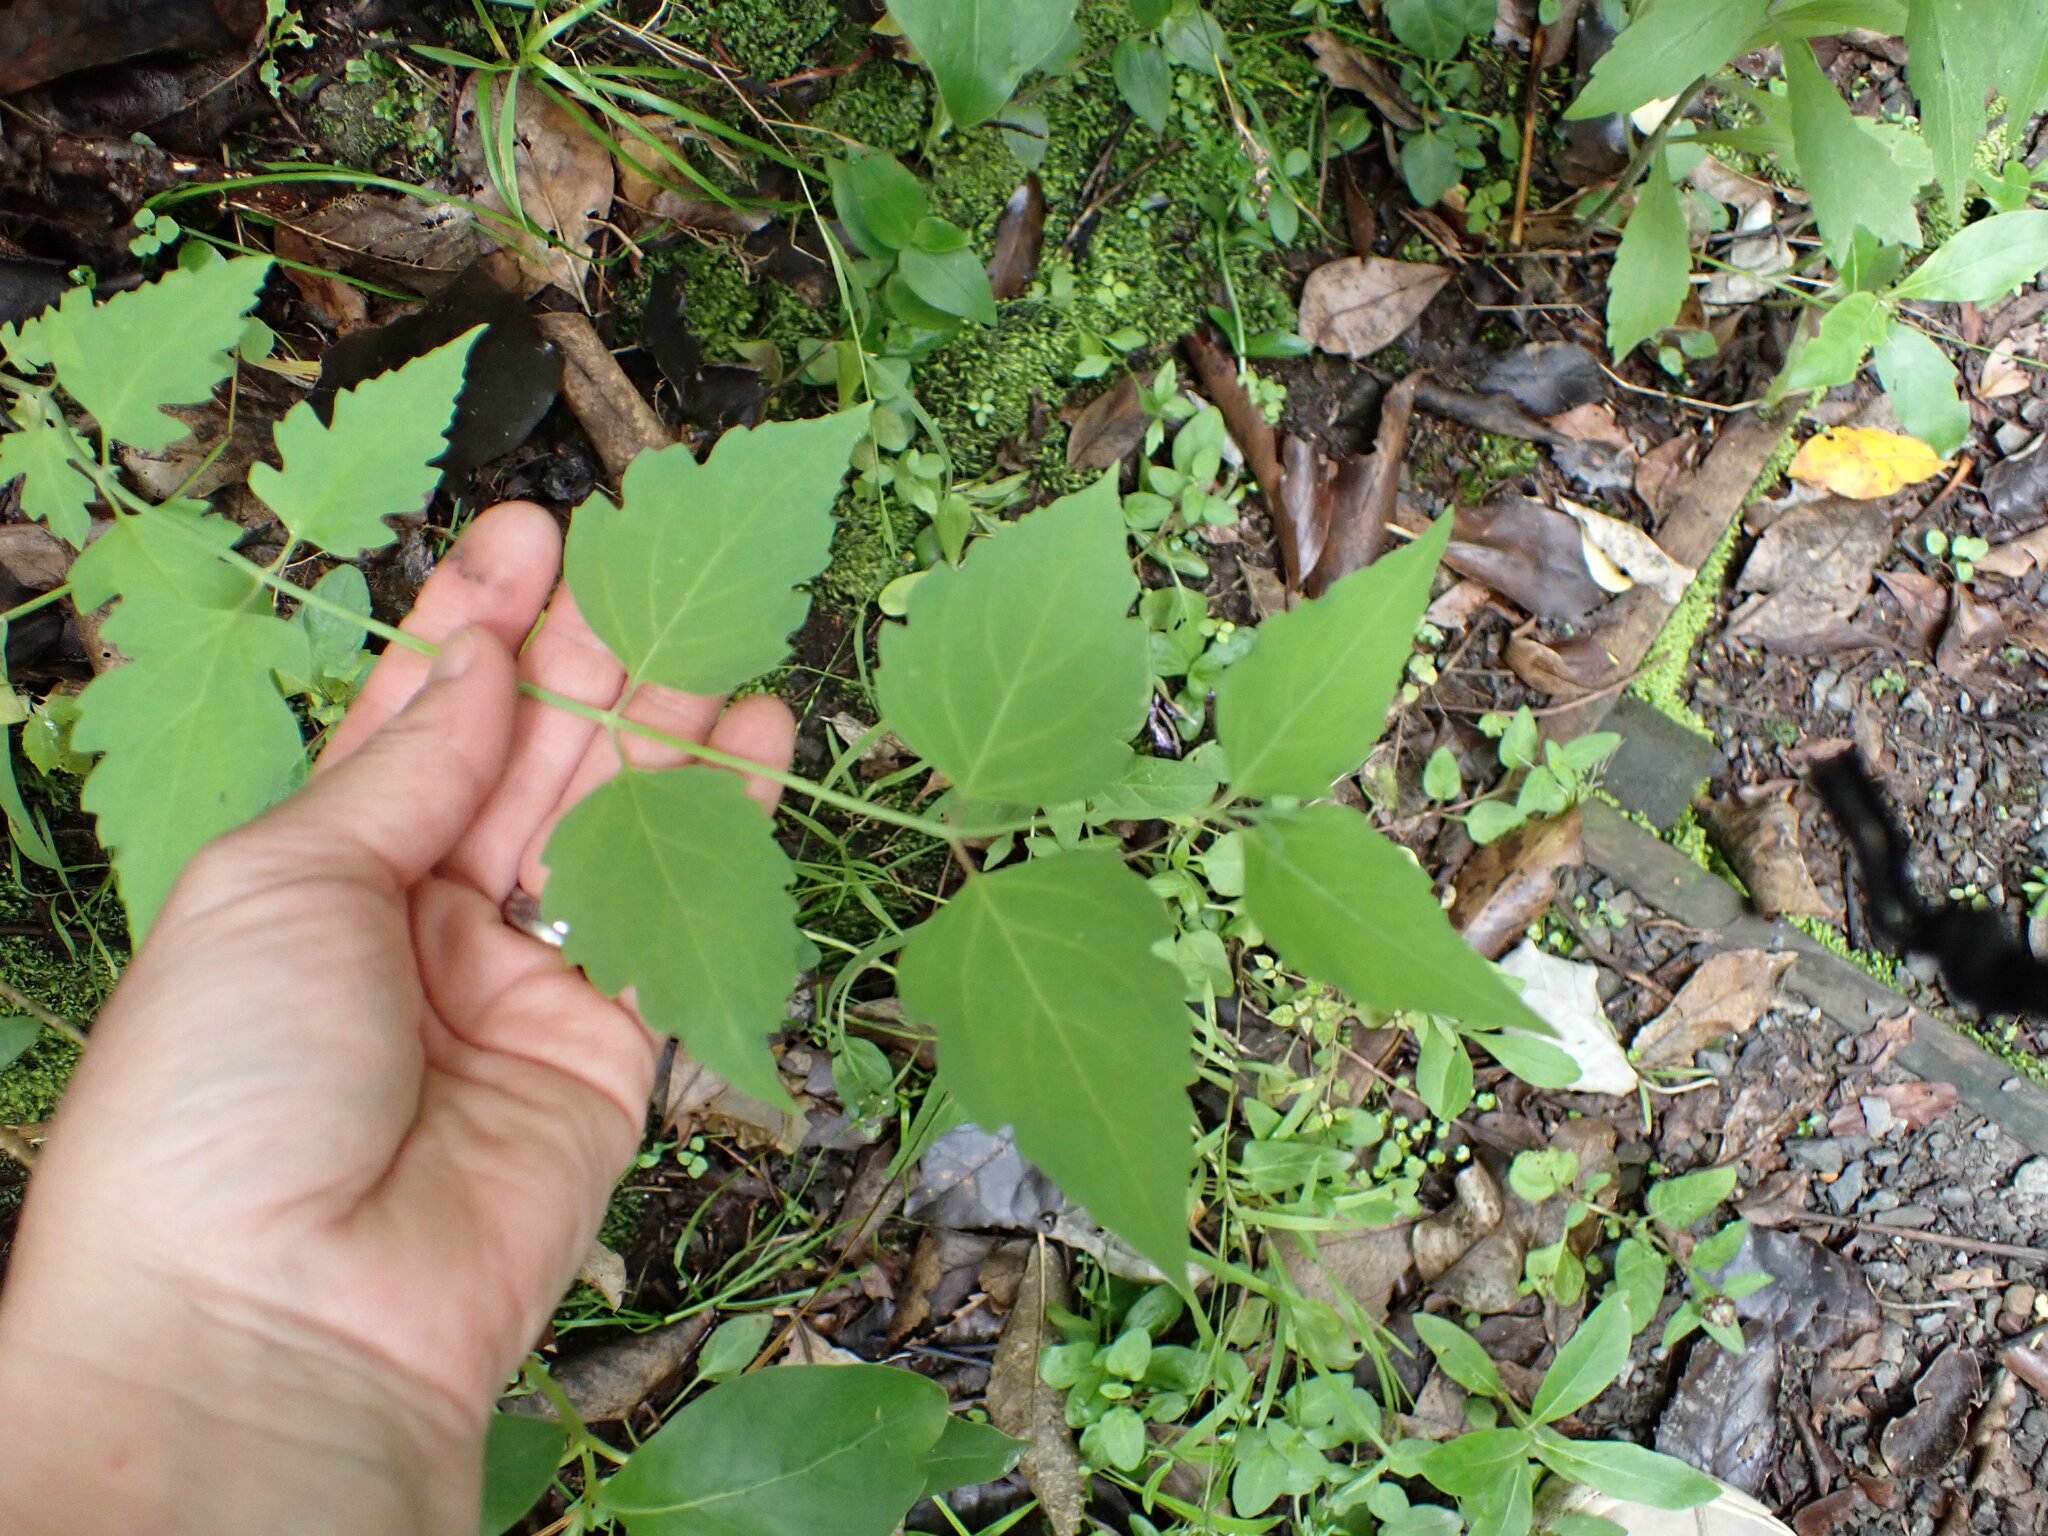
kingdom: Plantae
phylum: Tracheophyta
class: Magnoliopsida
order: Dipsacales
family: Caprifoliaceae
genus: Leycesteria
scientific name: Leycesteria formosa
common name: Himalayan honeysuckle
